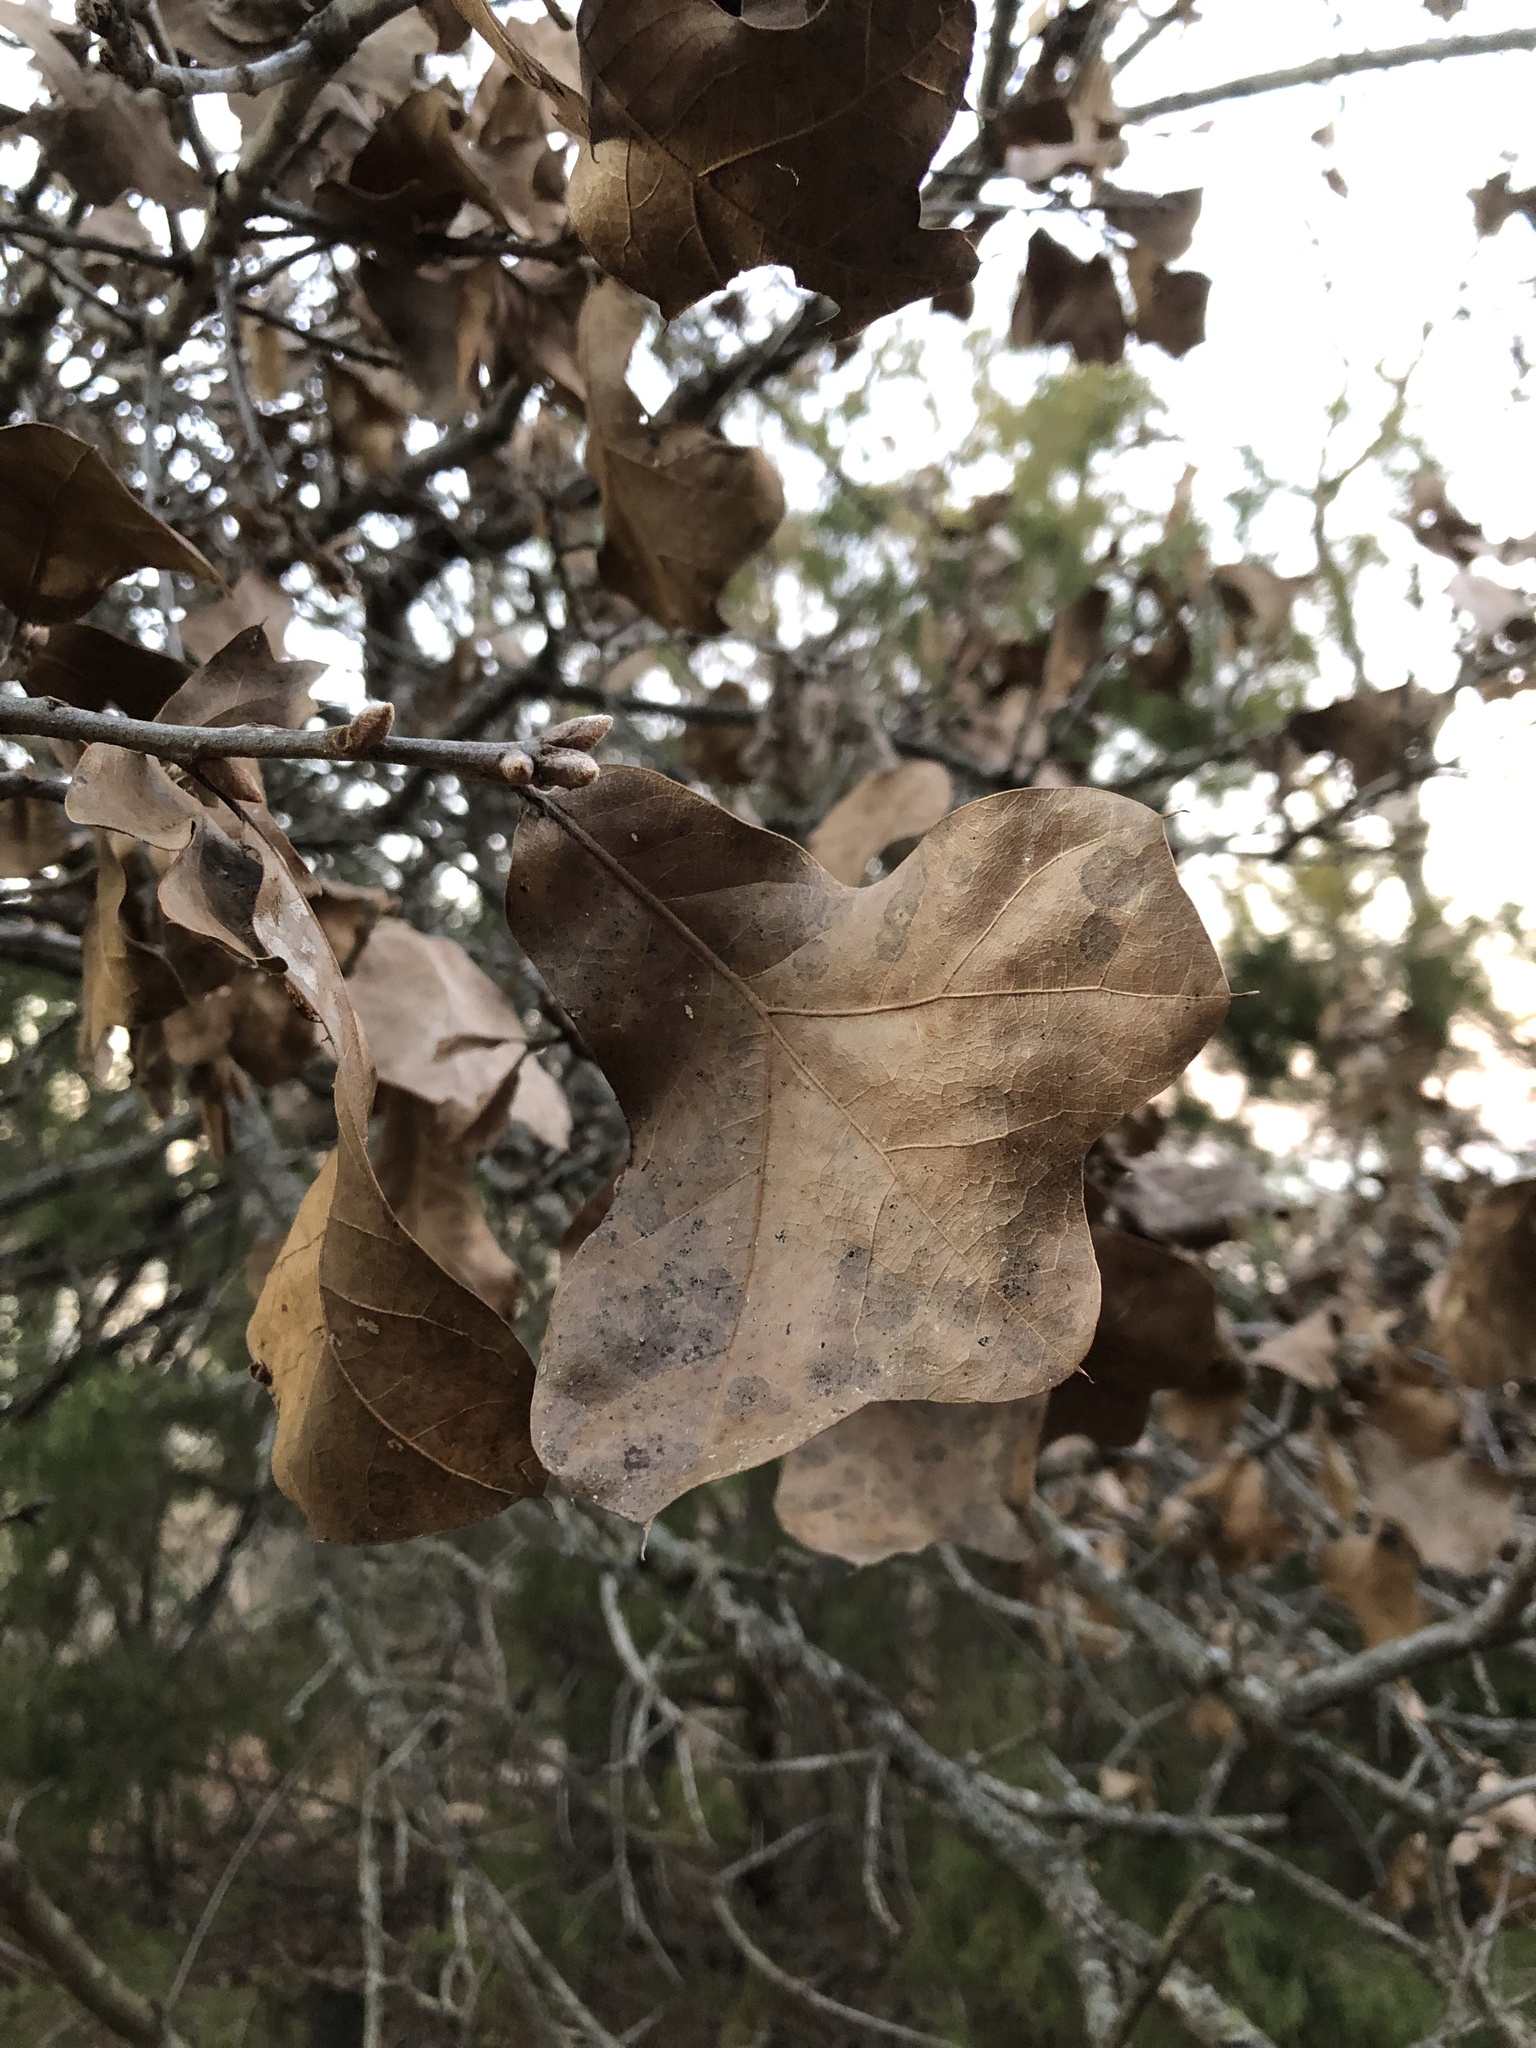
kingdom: Plantae
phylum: Tracheophyta
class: Magnoliopsida
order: Fagales
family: Fagaceae
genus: Quercus
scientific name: Quercus marilandica
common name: Blackjack oak
